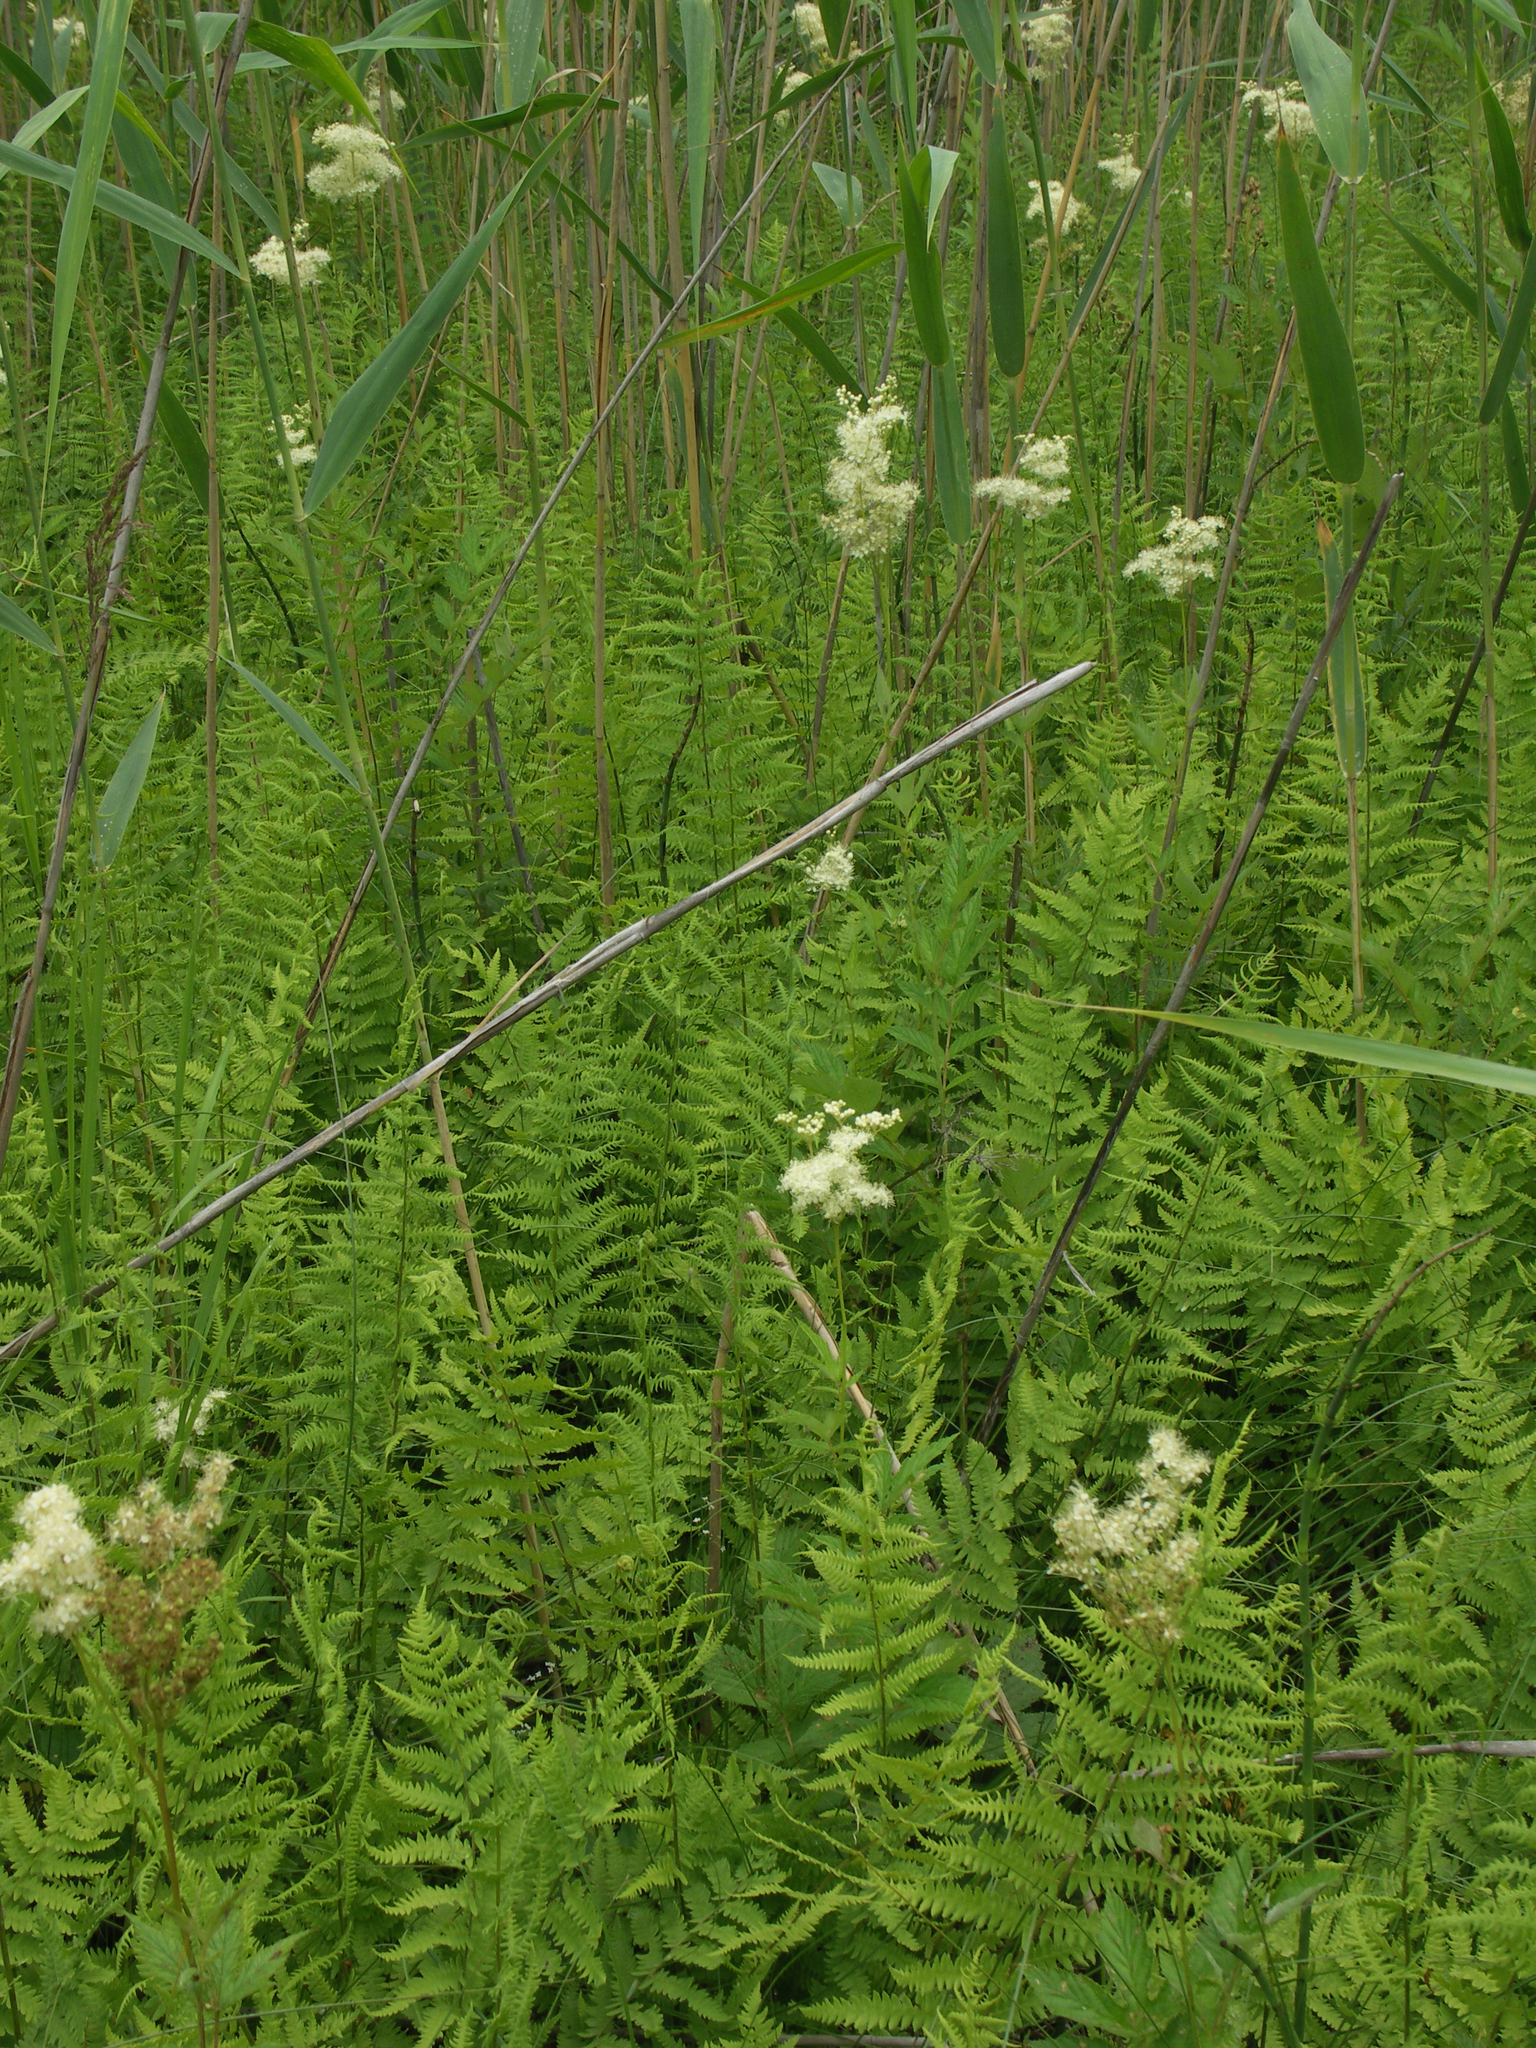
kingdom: Plantae
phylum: Tracheophyta
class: Polypodiopsida
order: Polypodiales
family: Thelypteridaceae
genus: Thelypteris
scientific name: Thelypteris palustris
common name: Marsh fern
